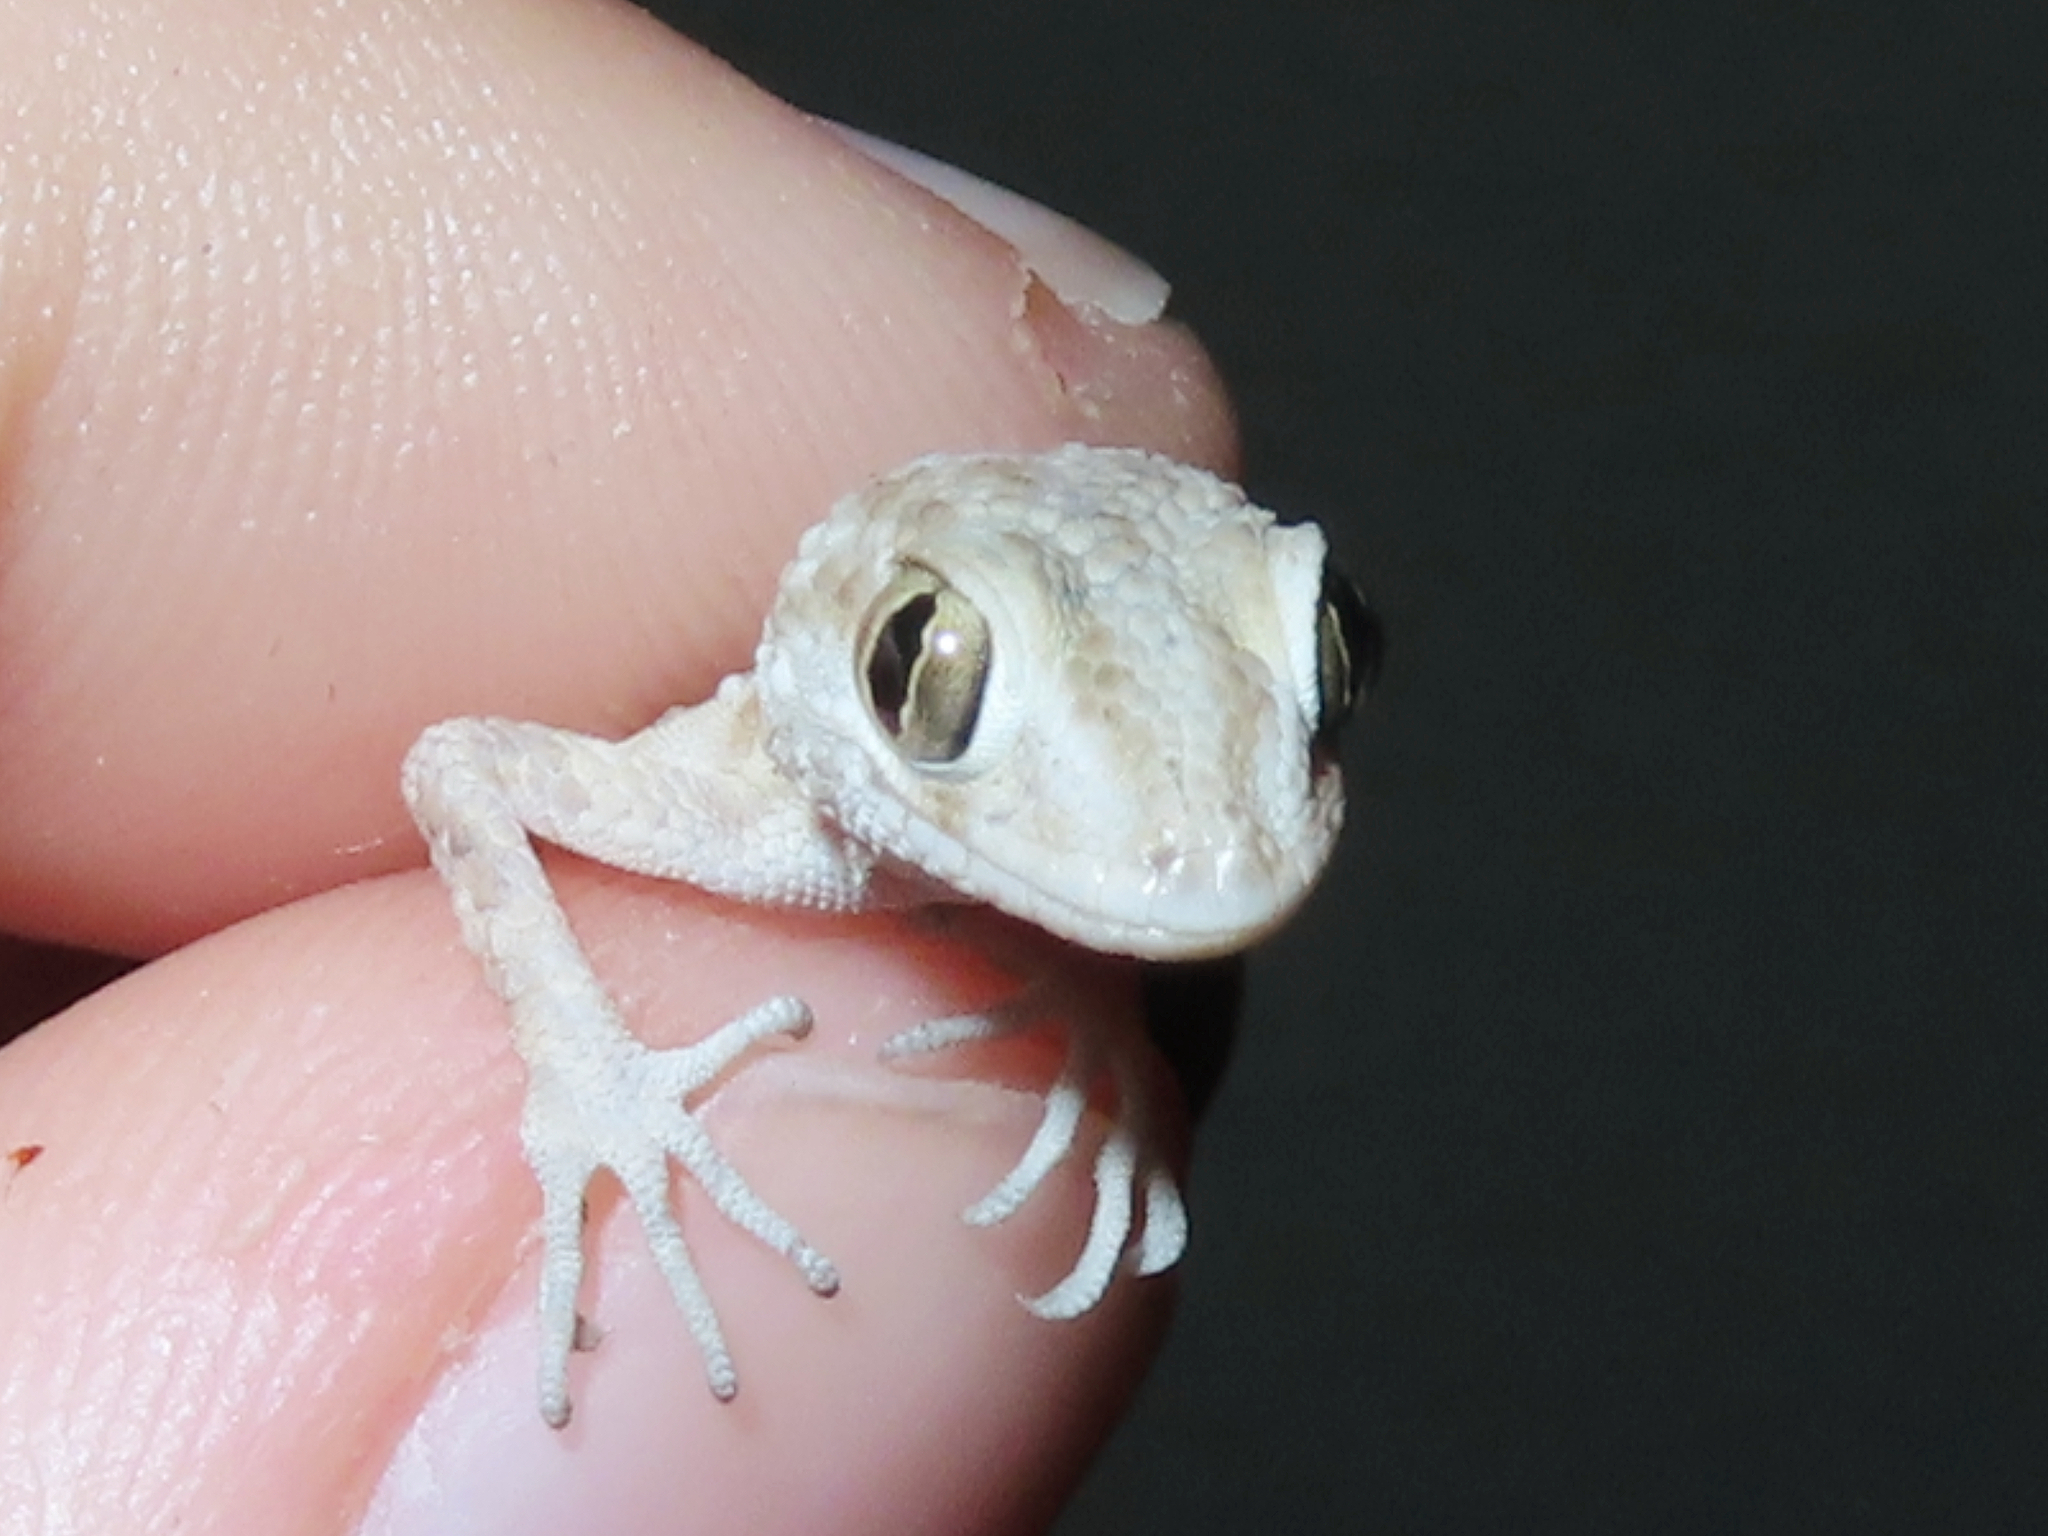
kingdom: Animalia
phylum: Chordata
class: Squamata
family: Gekkonidae
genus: Tenuidactylus
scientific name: Tenuidactylus caspius
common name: Caspian bent-toed gecko
